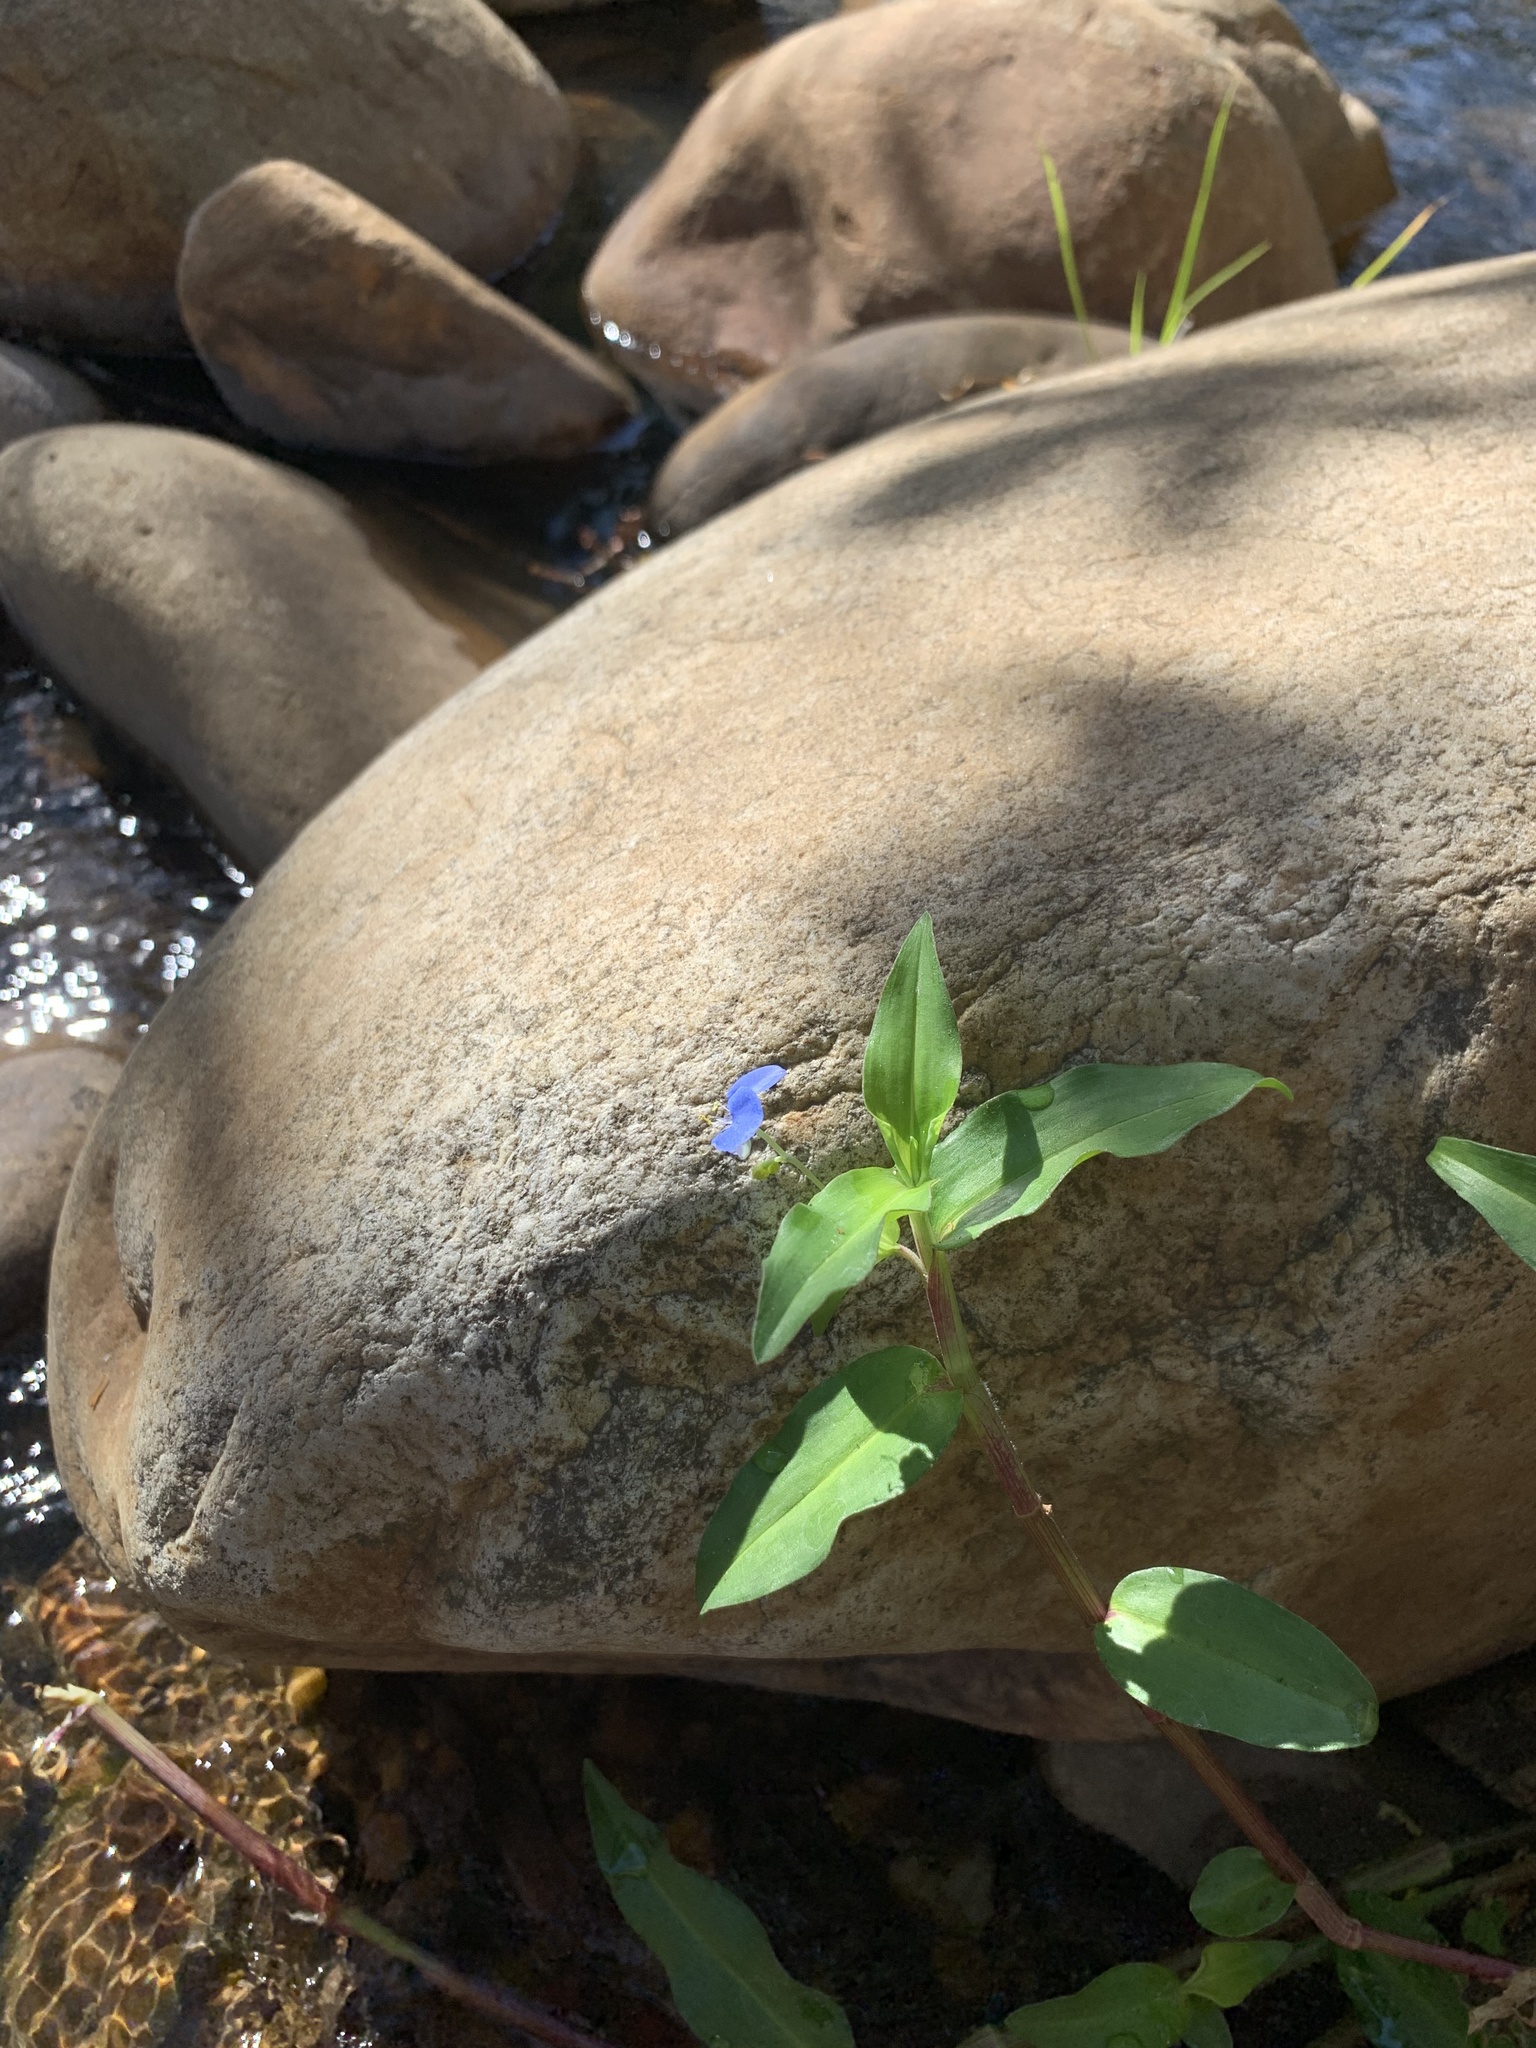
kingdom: Plantae
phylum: Tracheophyta
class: Liliopsida
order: Commelinales
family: Commelinaceae
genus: Commelina
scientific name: Commelina diffusa
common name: Climbing dayflower
